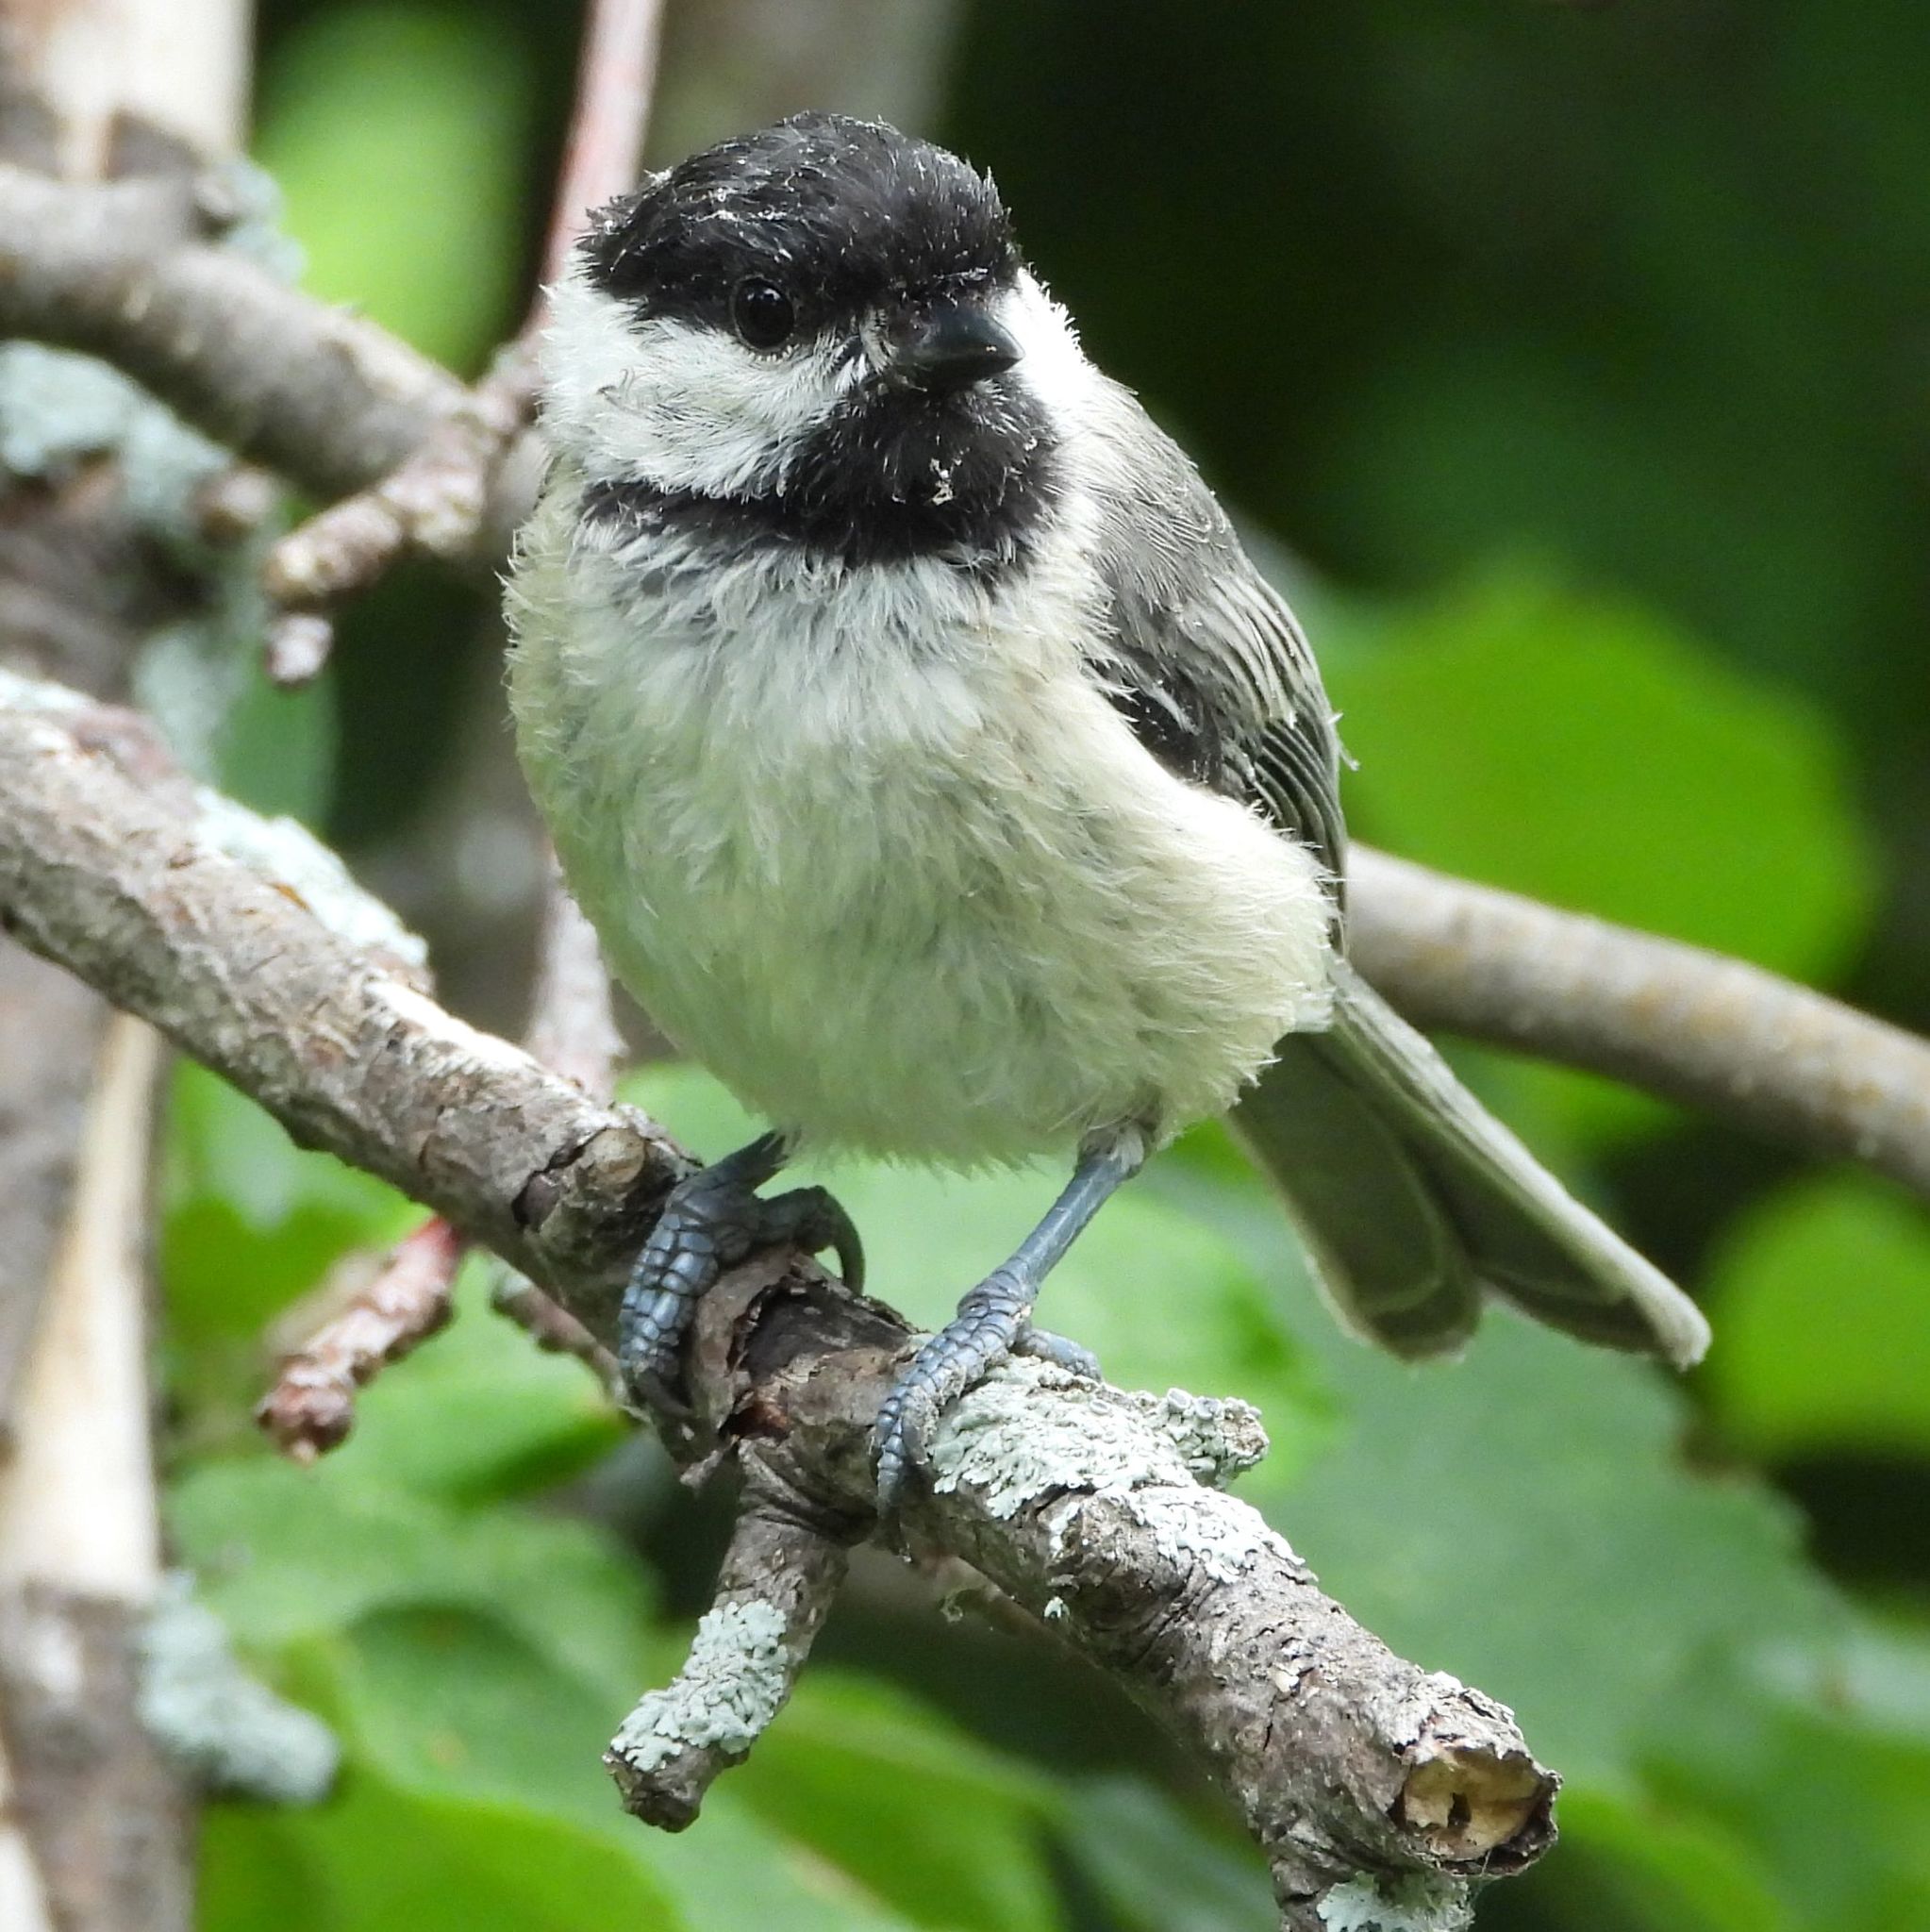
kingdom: Animalia
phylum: Chordata
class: Aves
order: Passeriformes
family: Paridae
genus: Poecile
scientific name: Poecile atricapillus
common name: Black-capped chickadee
